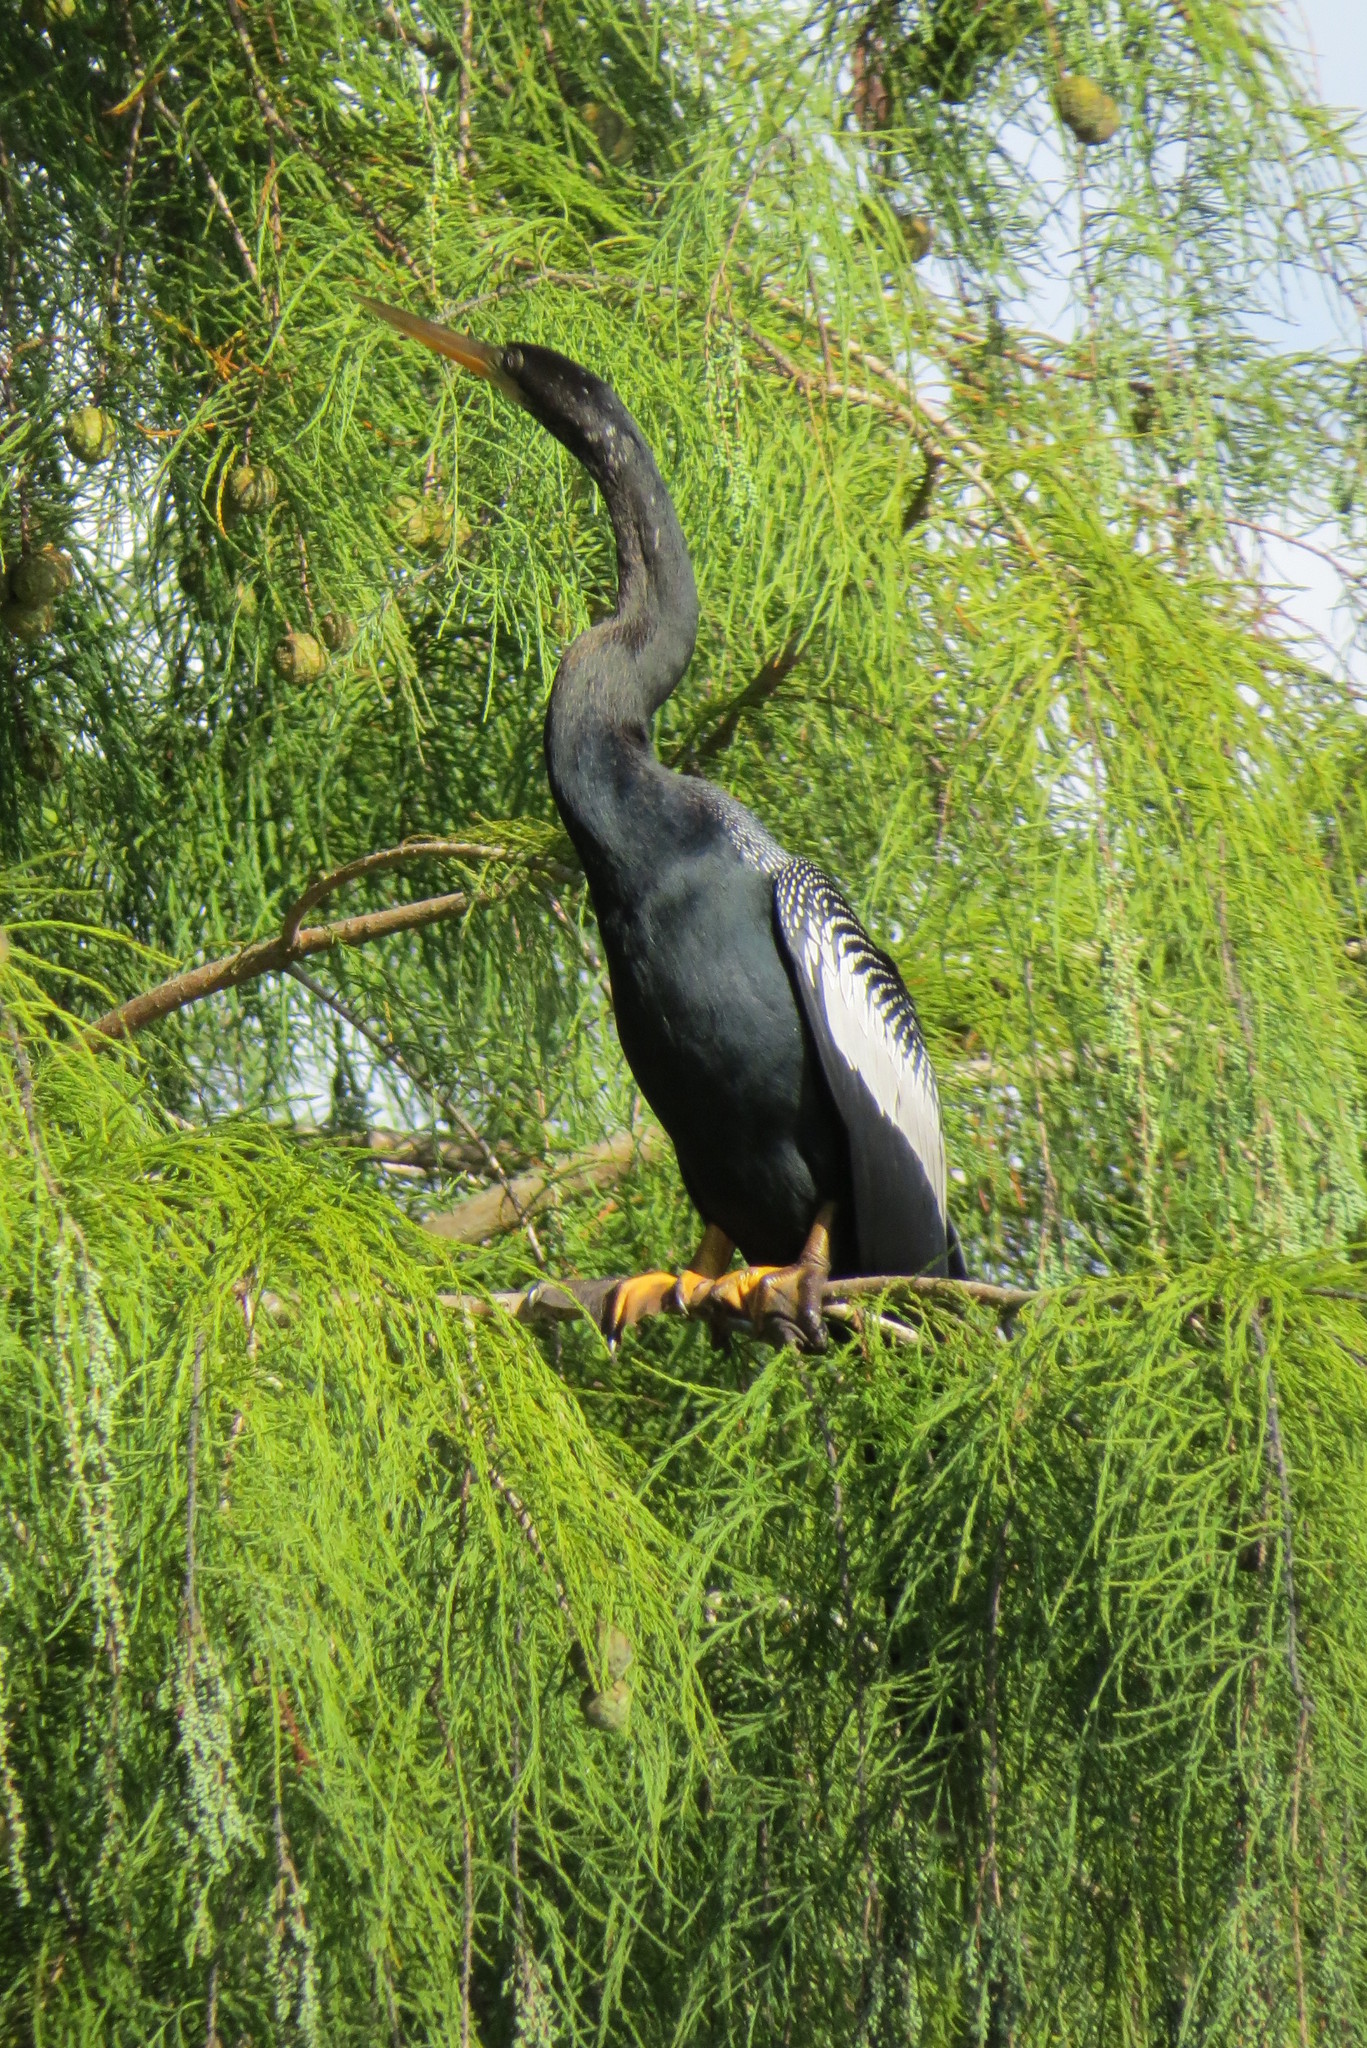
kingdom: Animalia
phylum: Chordata
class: Aves
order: Suliformes
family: Anhingidae
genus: Anhinga
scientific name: Anhinga anhinga
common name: Anhinga
